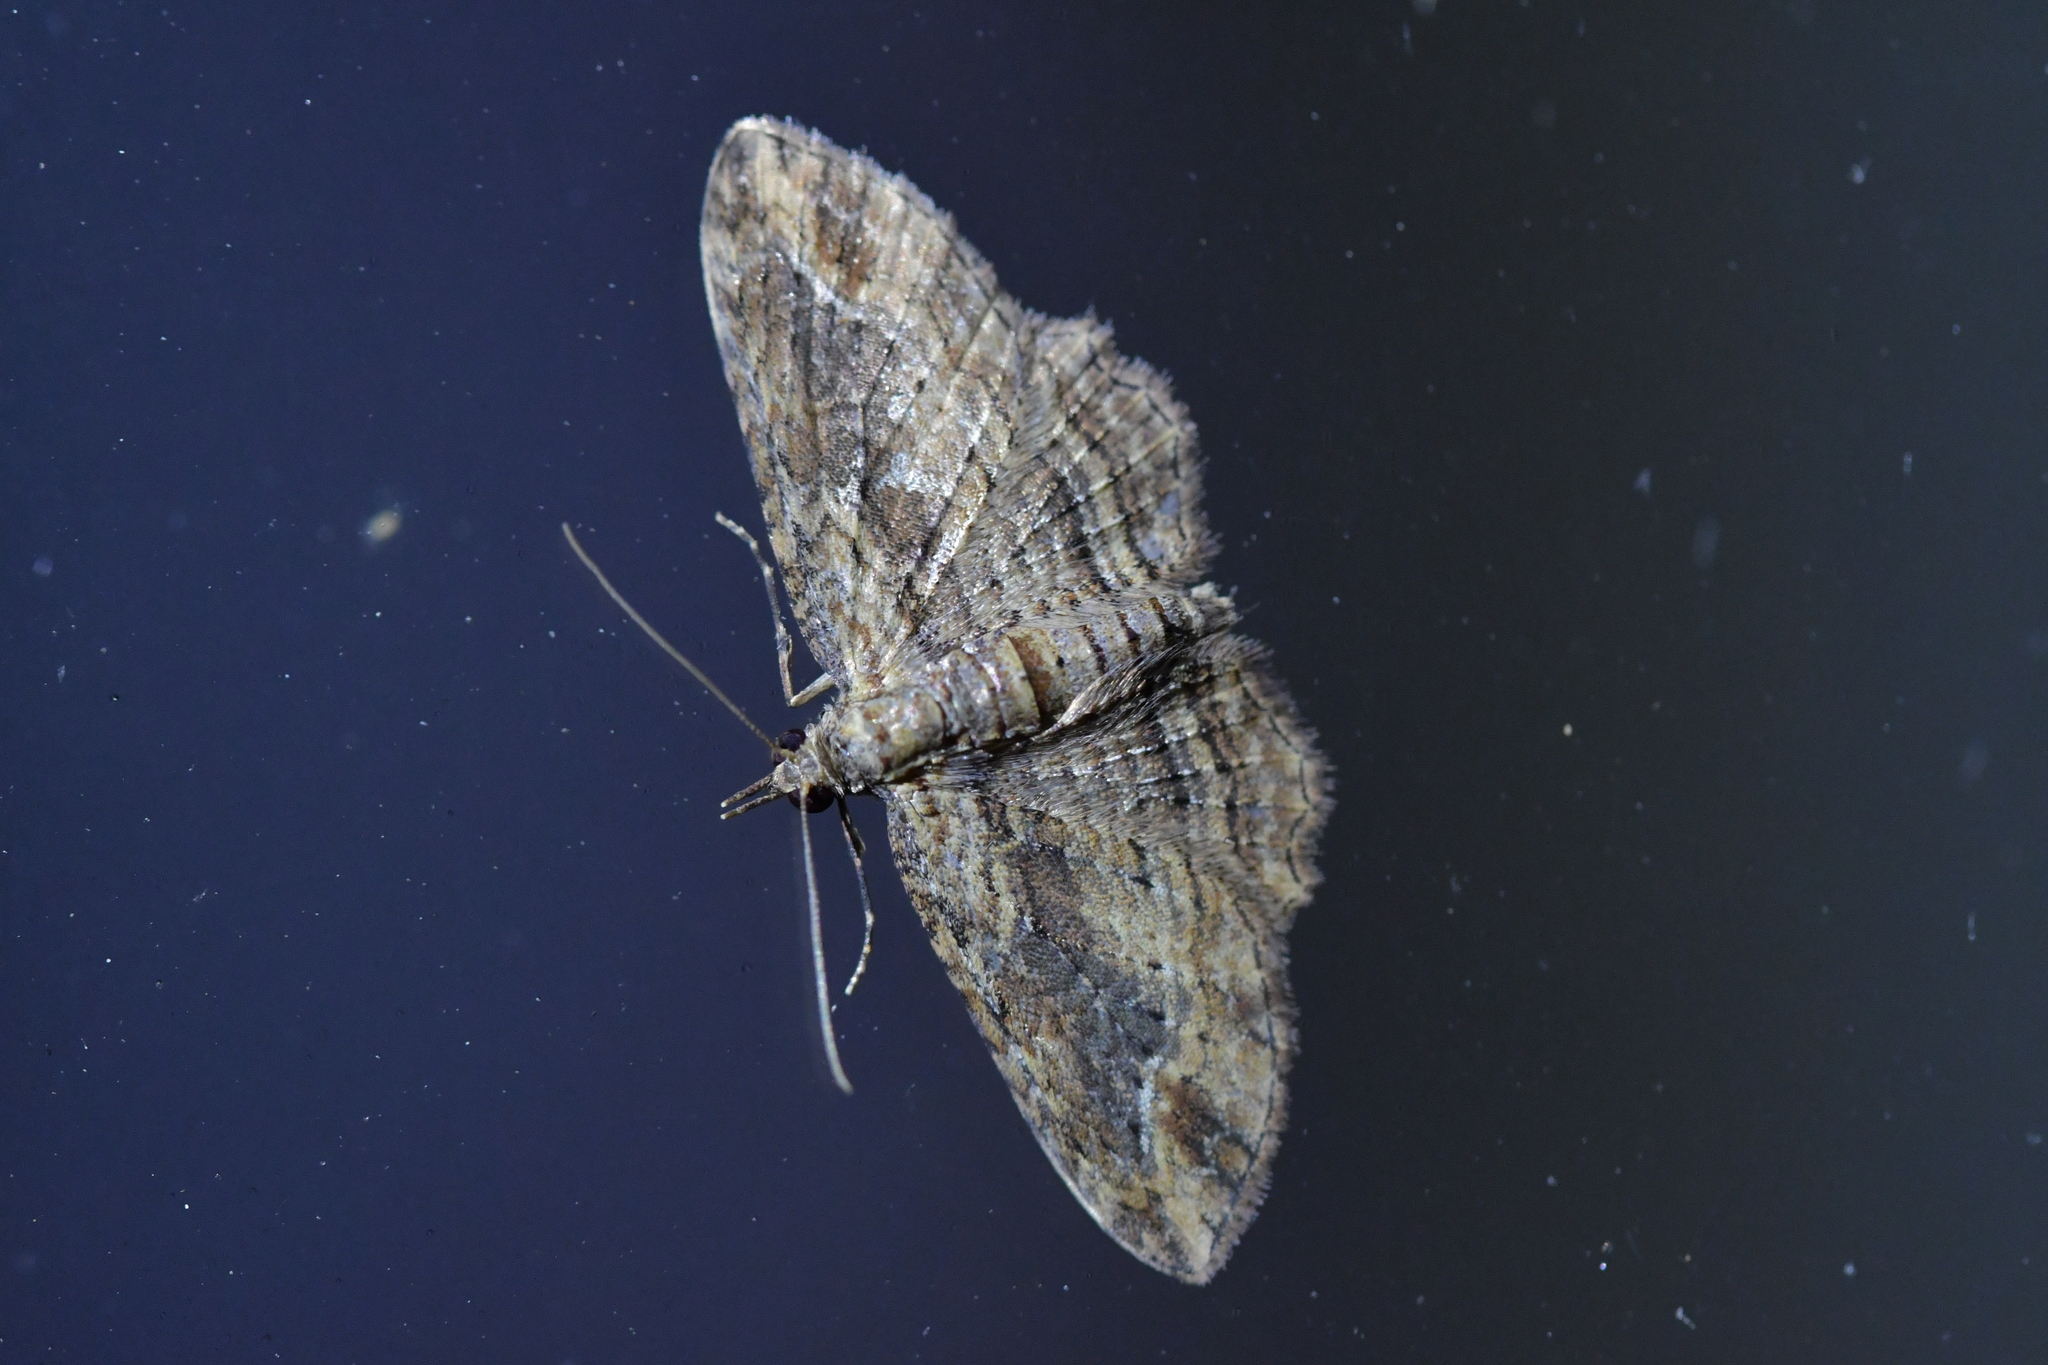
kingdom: Animalia
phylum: Arthropoda
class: Insecta
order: Lepidoptera
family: Geometridae
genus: Chloroclystis
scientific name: Chloroclystis filata
